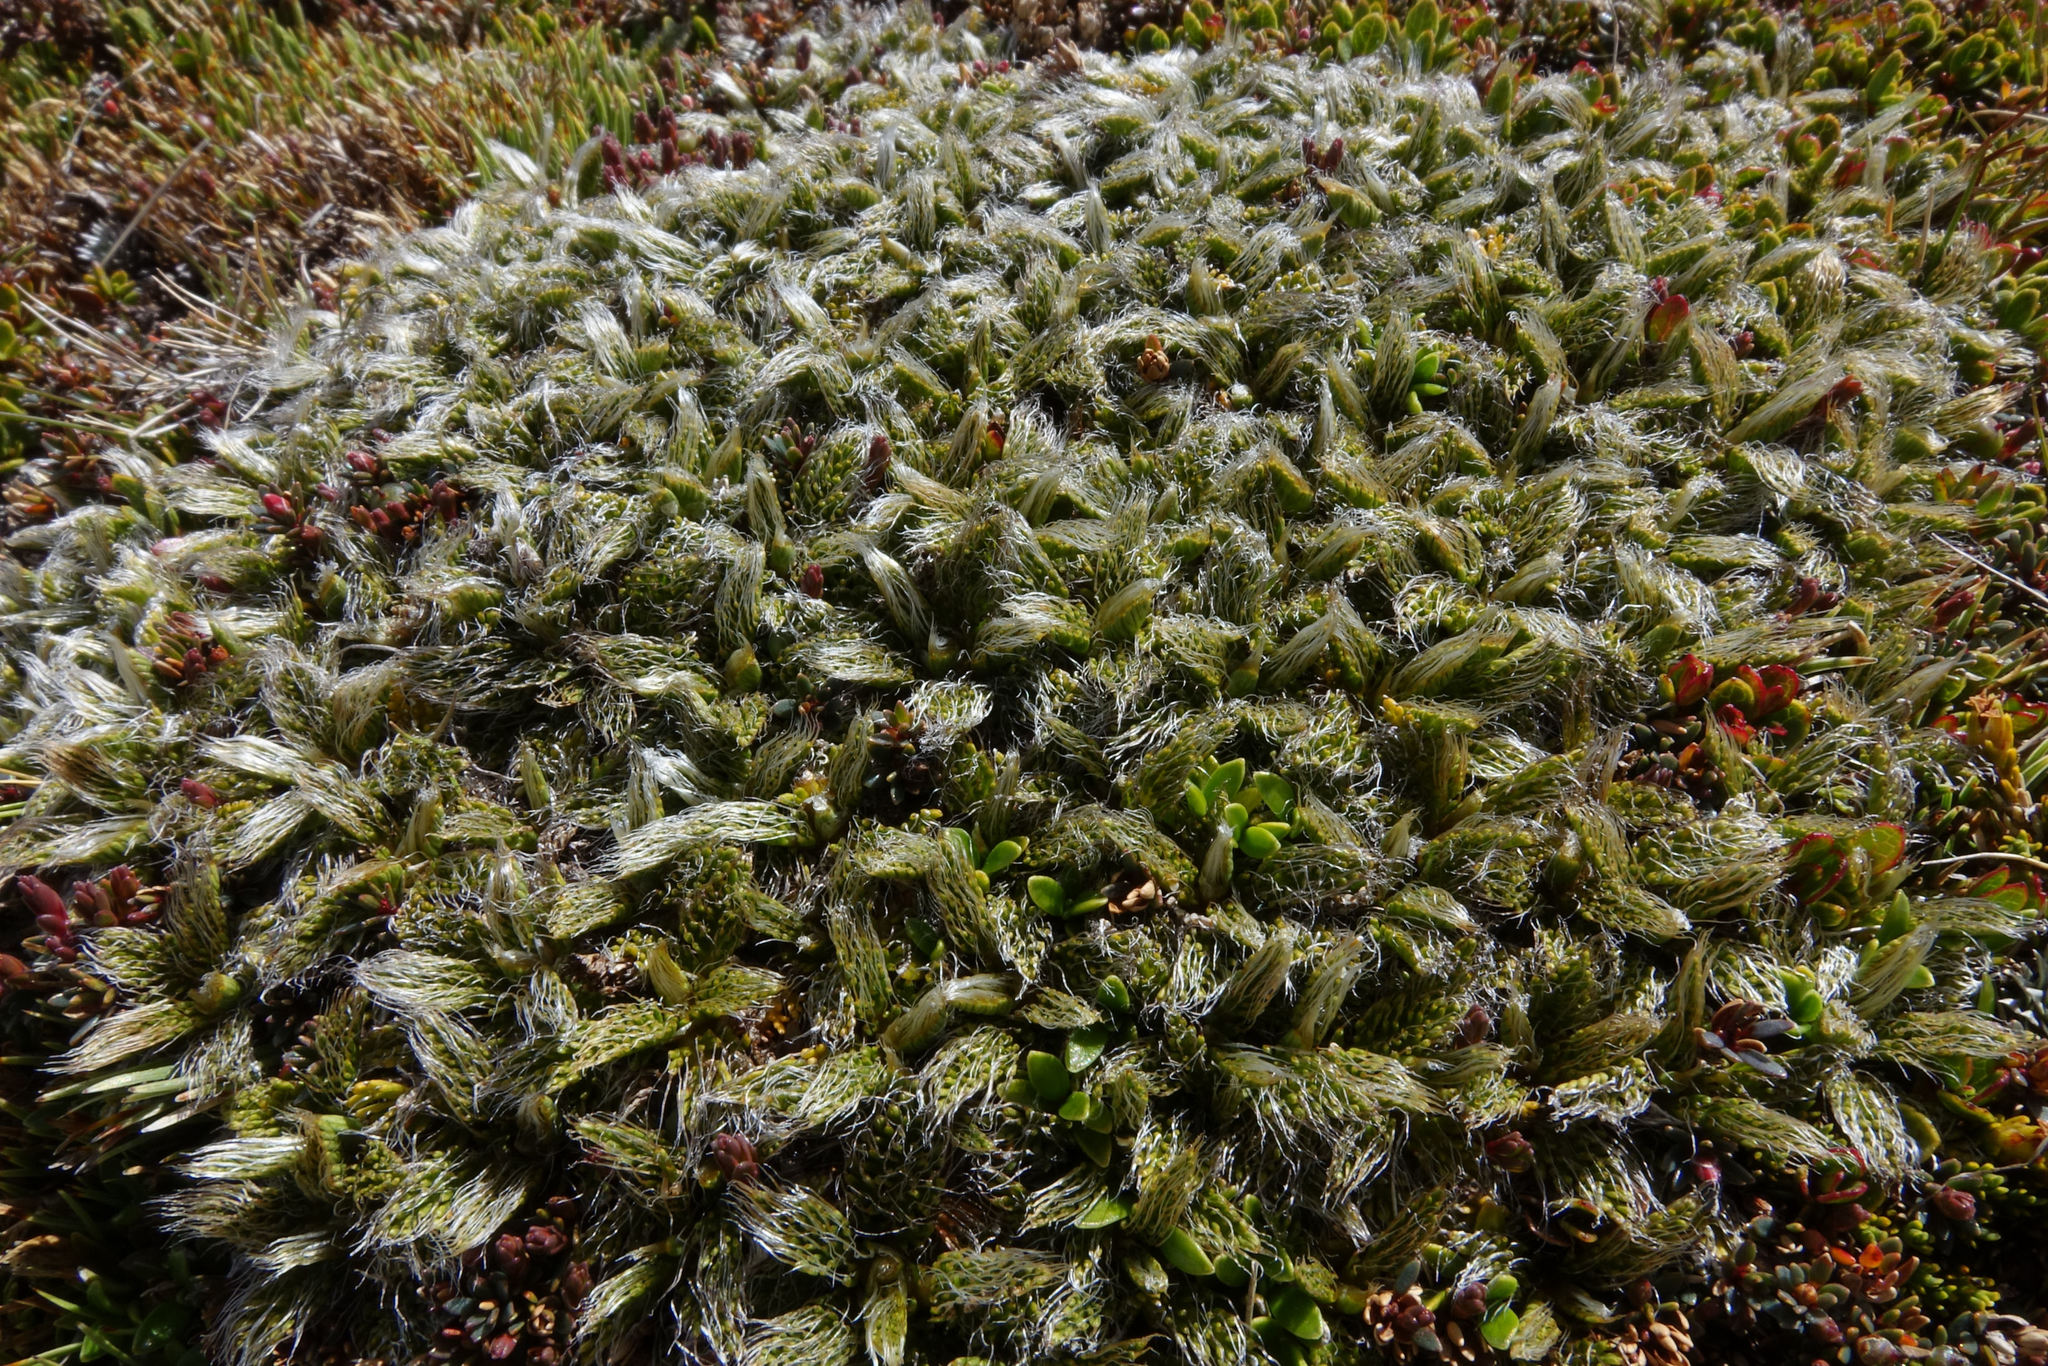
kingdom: Plantae
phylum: Tracheophyta
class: Magnoliopsida
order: Apiales
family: Apiaceae
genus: Anisotome
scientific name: Anisotome imbricata
